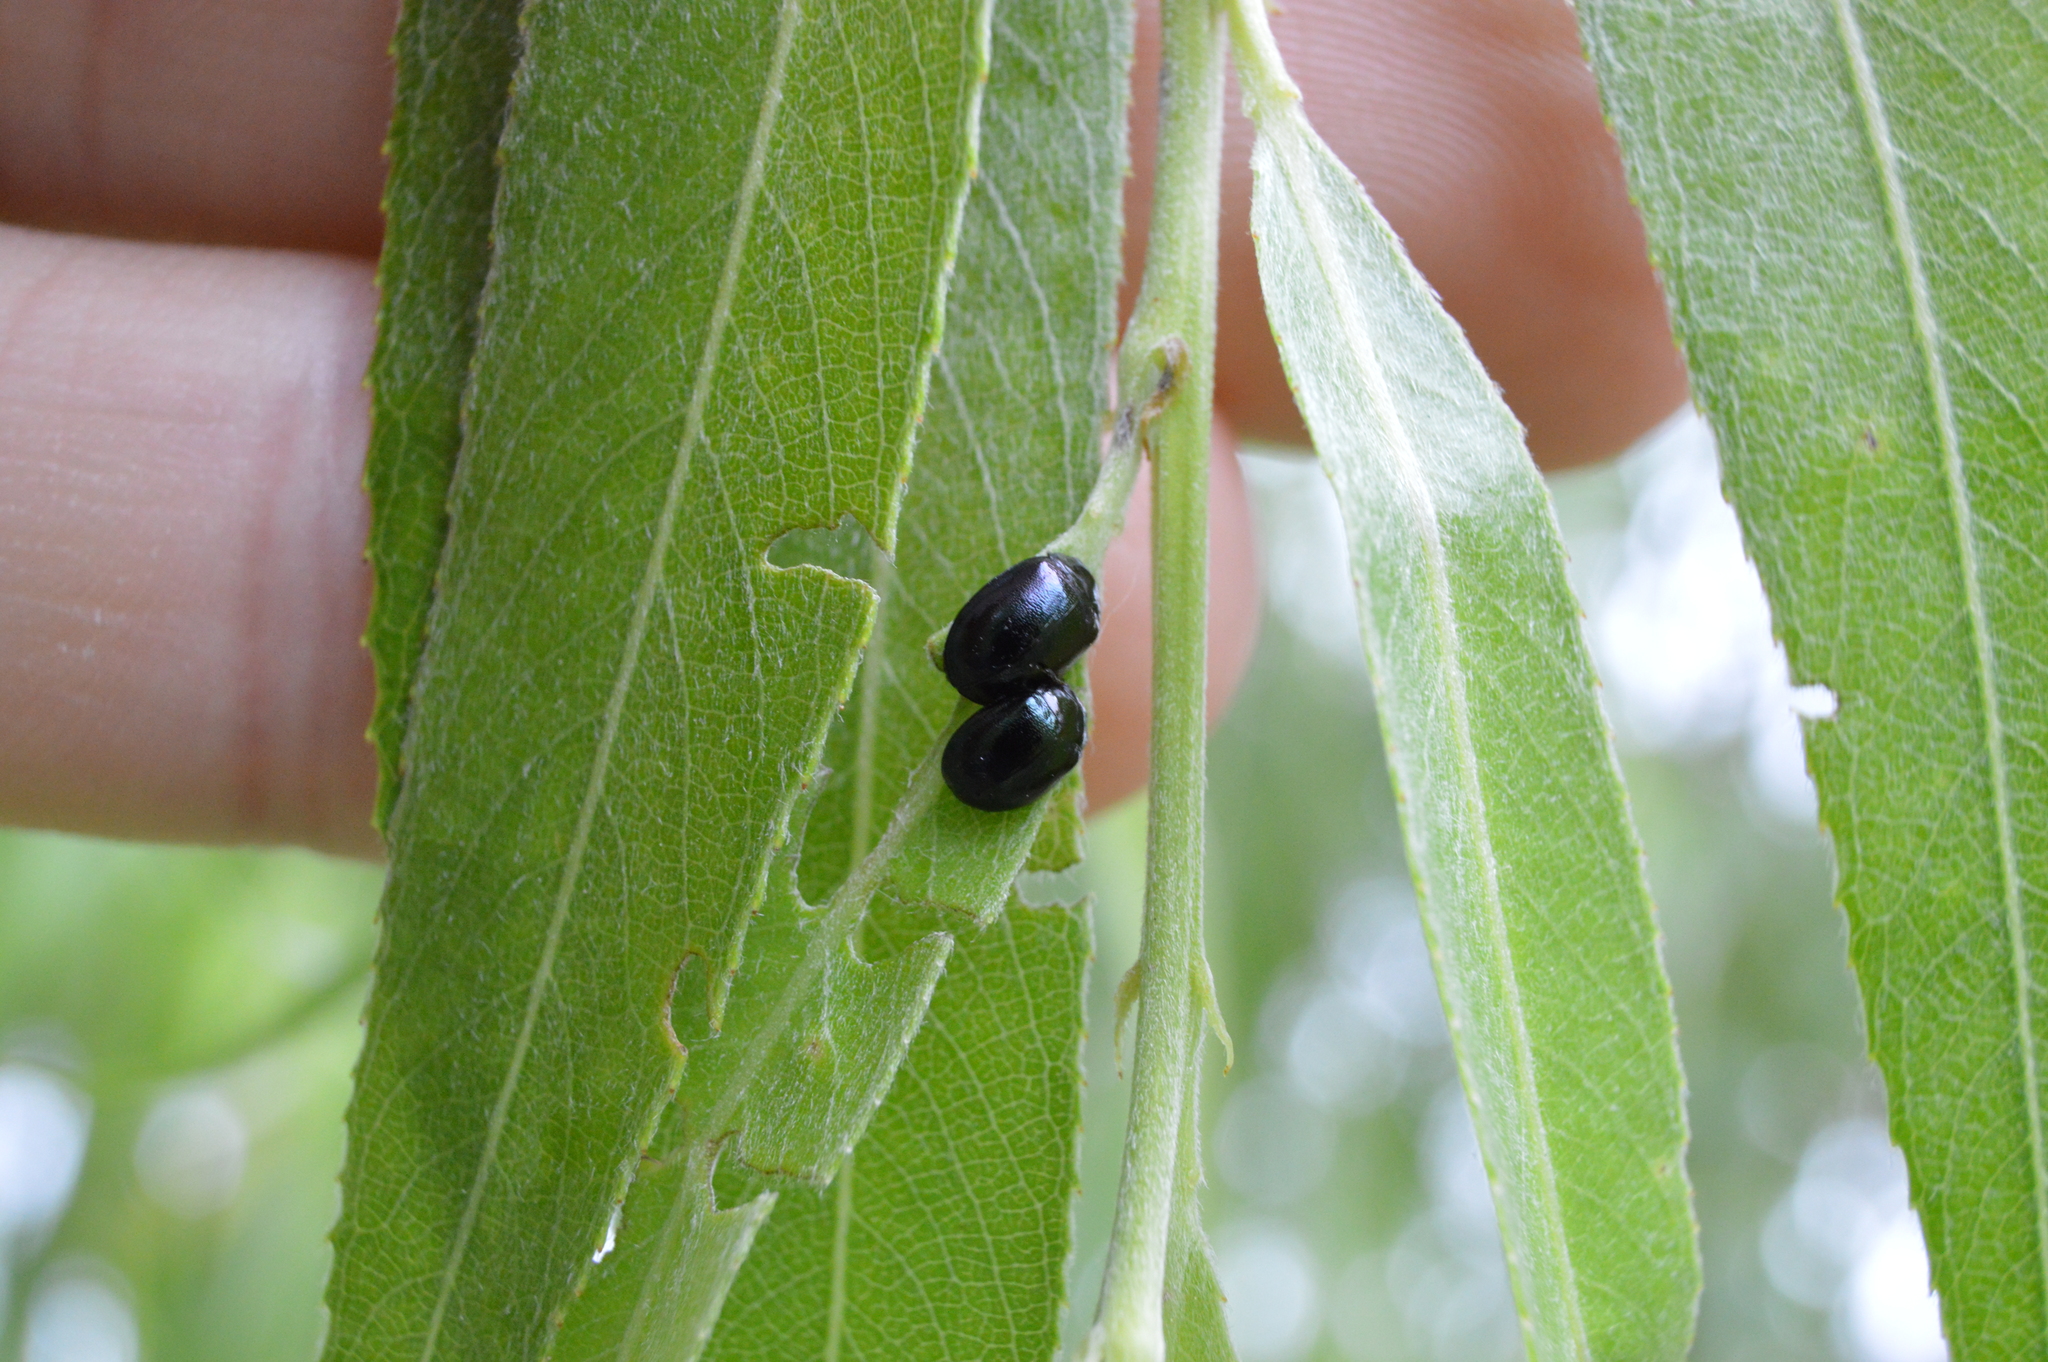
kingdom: Animalia
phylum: Arthropoda
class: Insecta
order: Coleoptera
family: Chrysomelidae
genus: Plagiodera
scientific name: Plagiodera versicolora
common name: Imported willow leaf beetle
